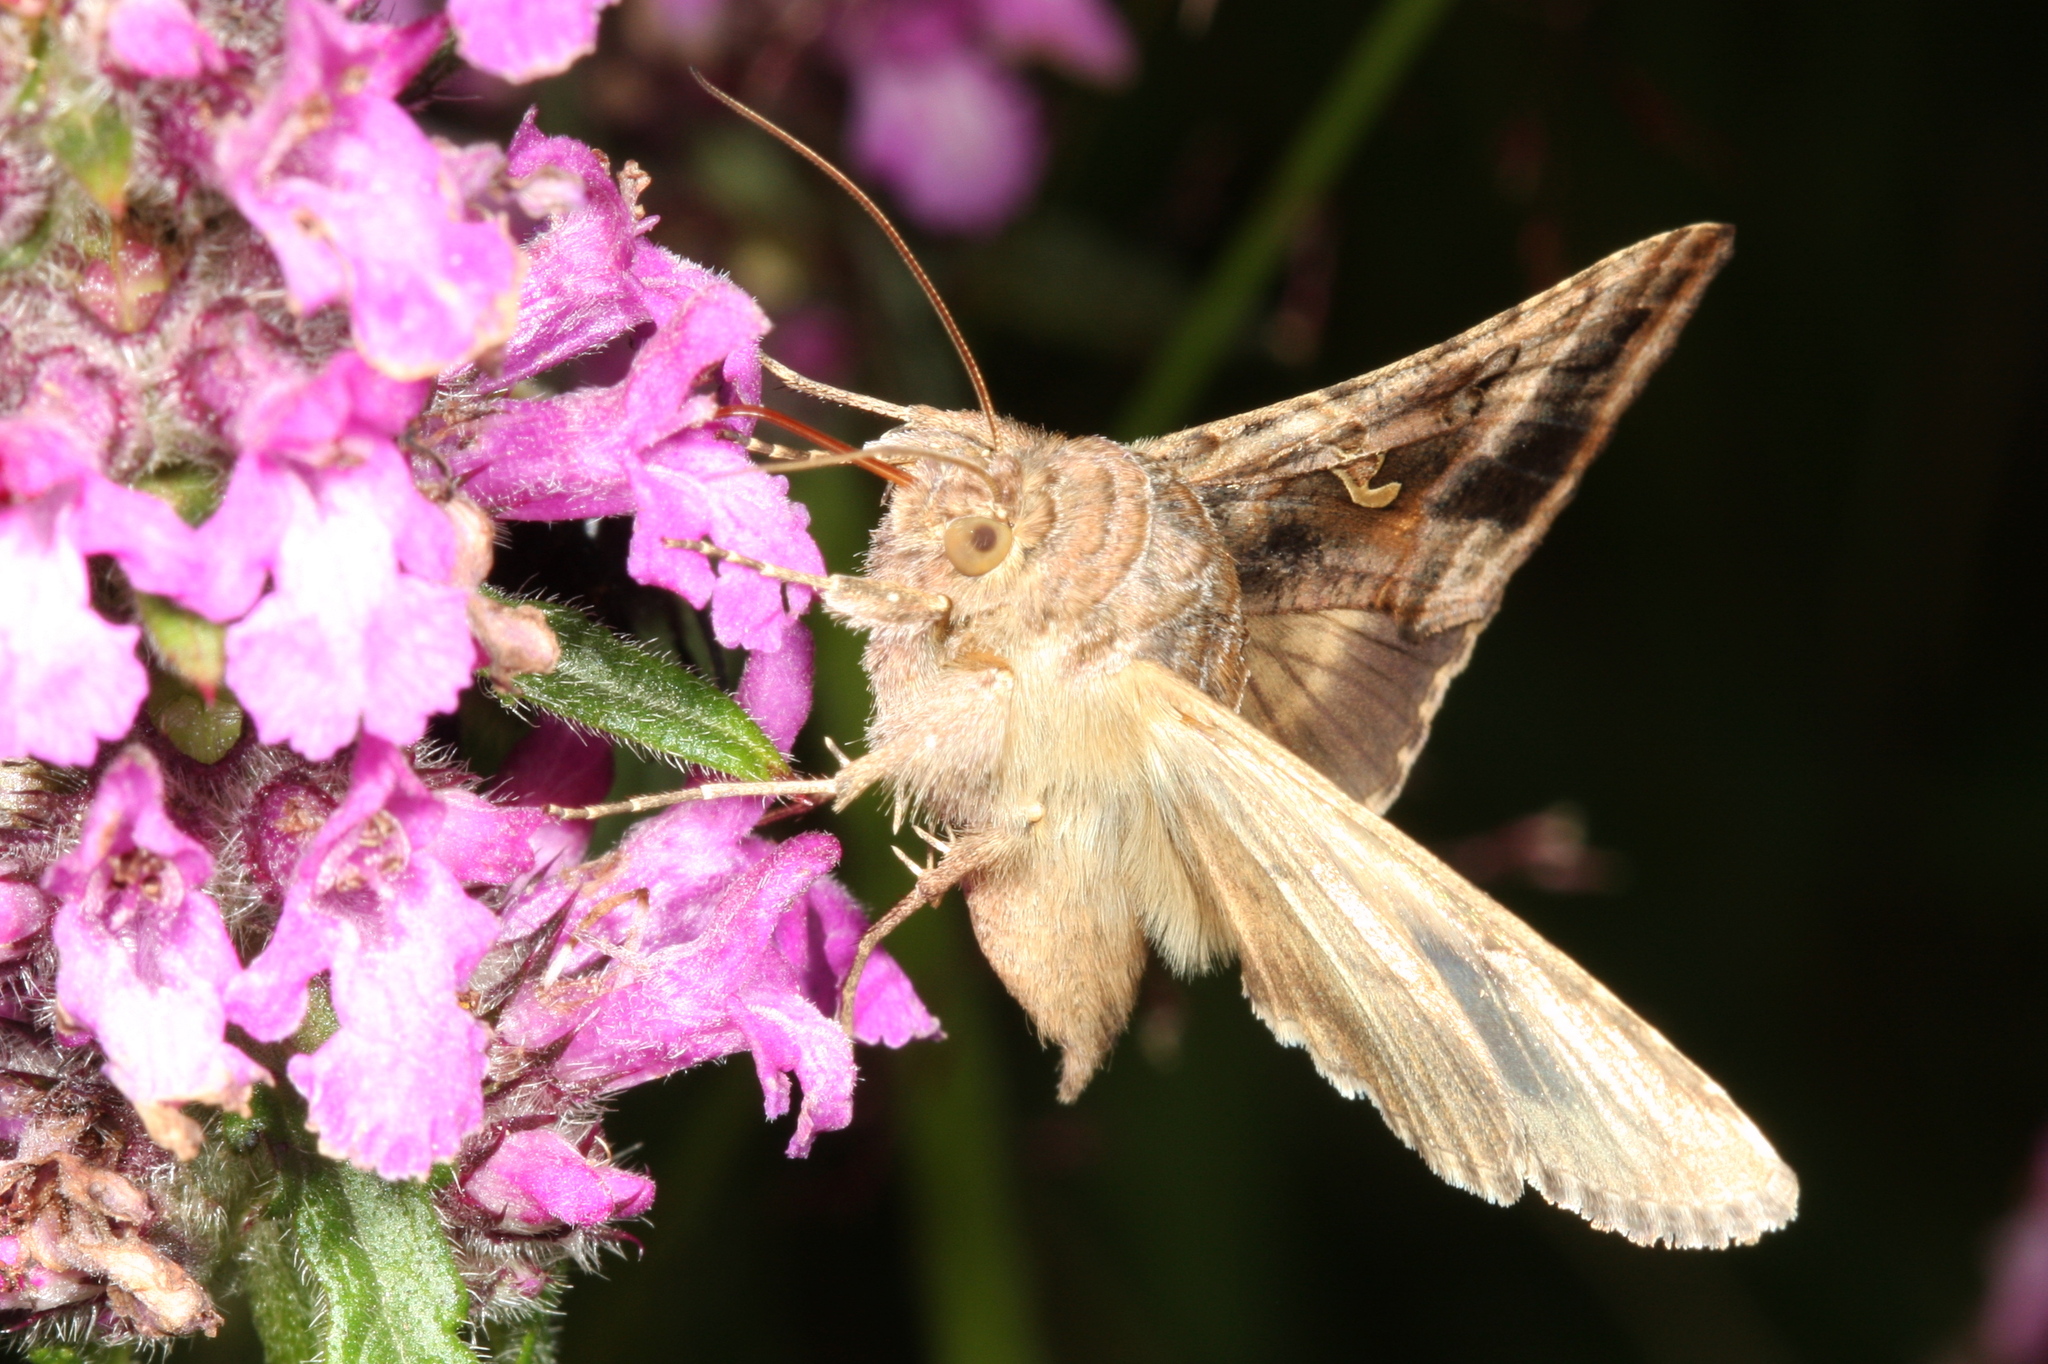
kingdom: Animalia
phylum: Arthropoda
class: Insecta
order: Lepidoptera
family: Noctuidae
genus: Autographa
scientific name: Autographa gamma
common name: Silver y
